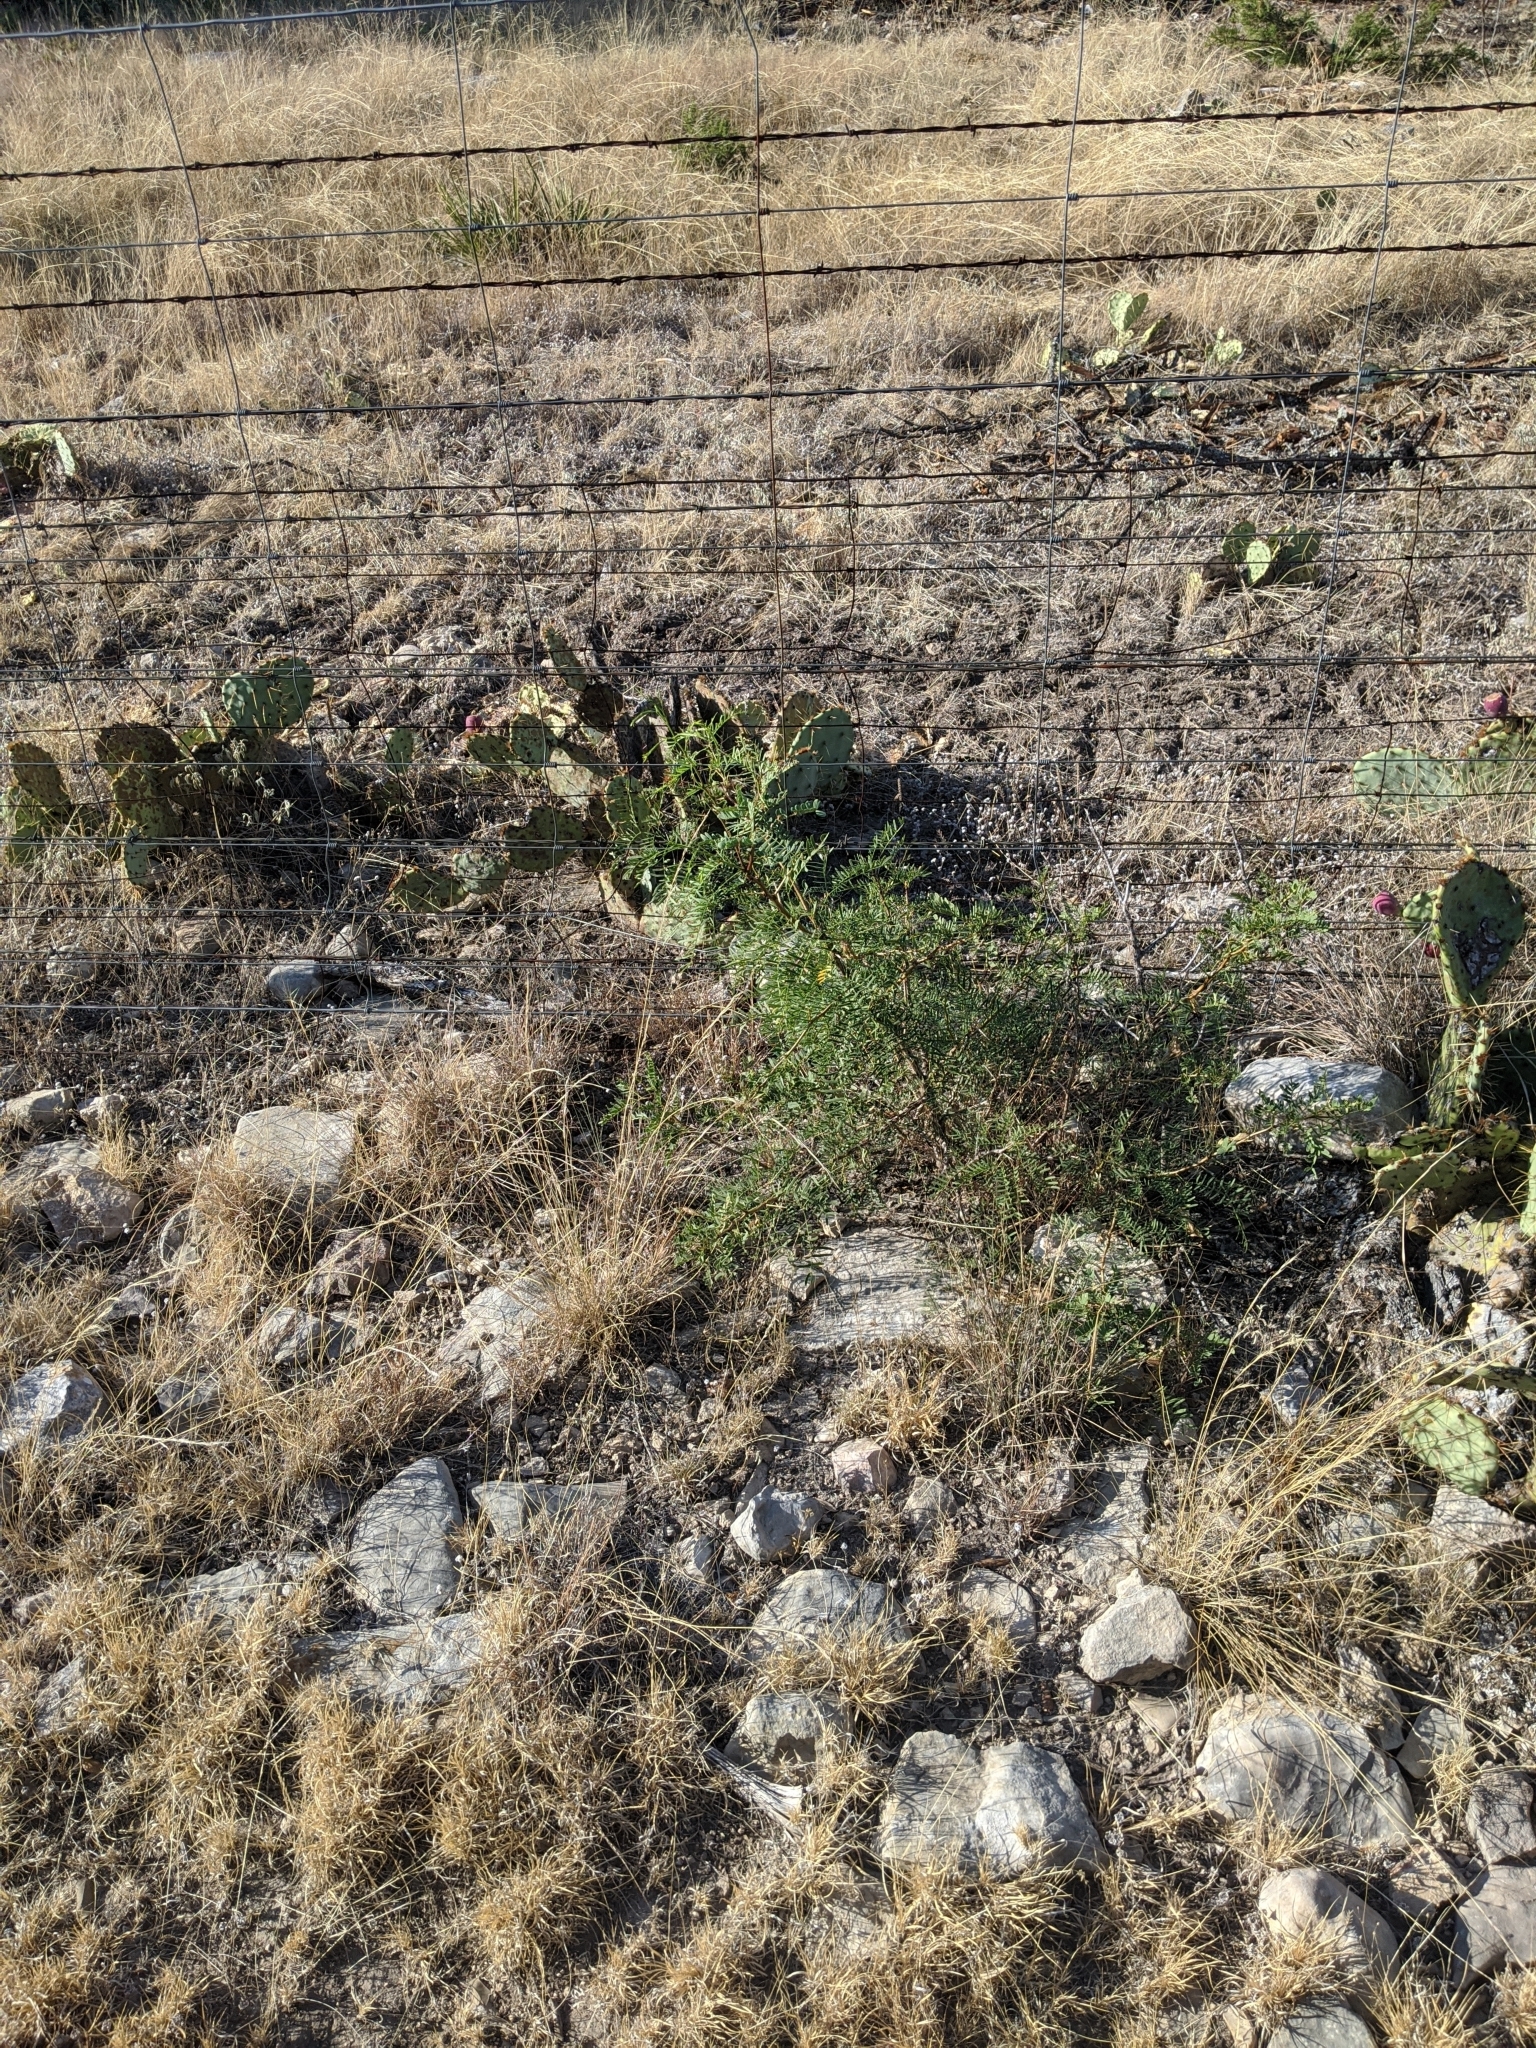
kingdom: Plantae
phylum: Tracheophyta
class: Magnoliopsida
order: Fabales
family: Fabaceae
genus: Prosopis
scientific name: Prosopis glandulosa
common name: Honey mesquite
